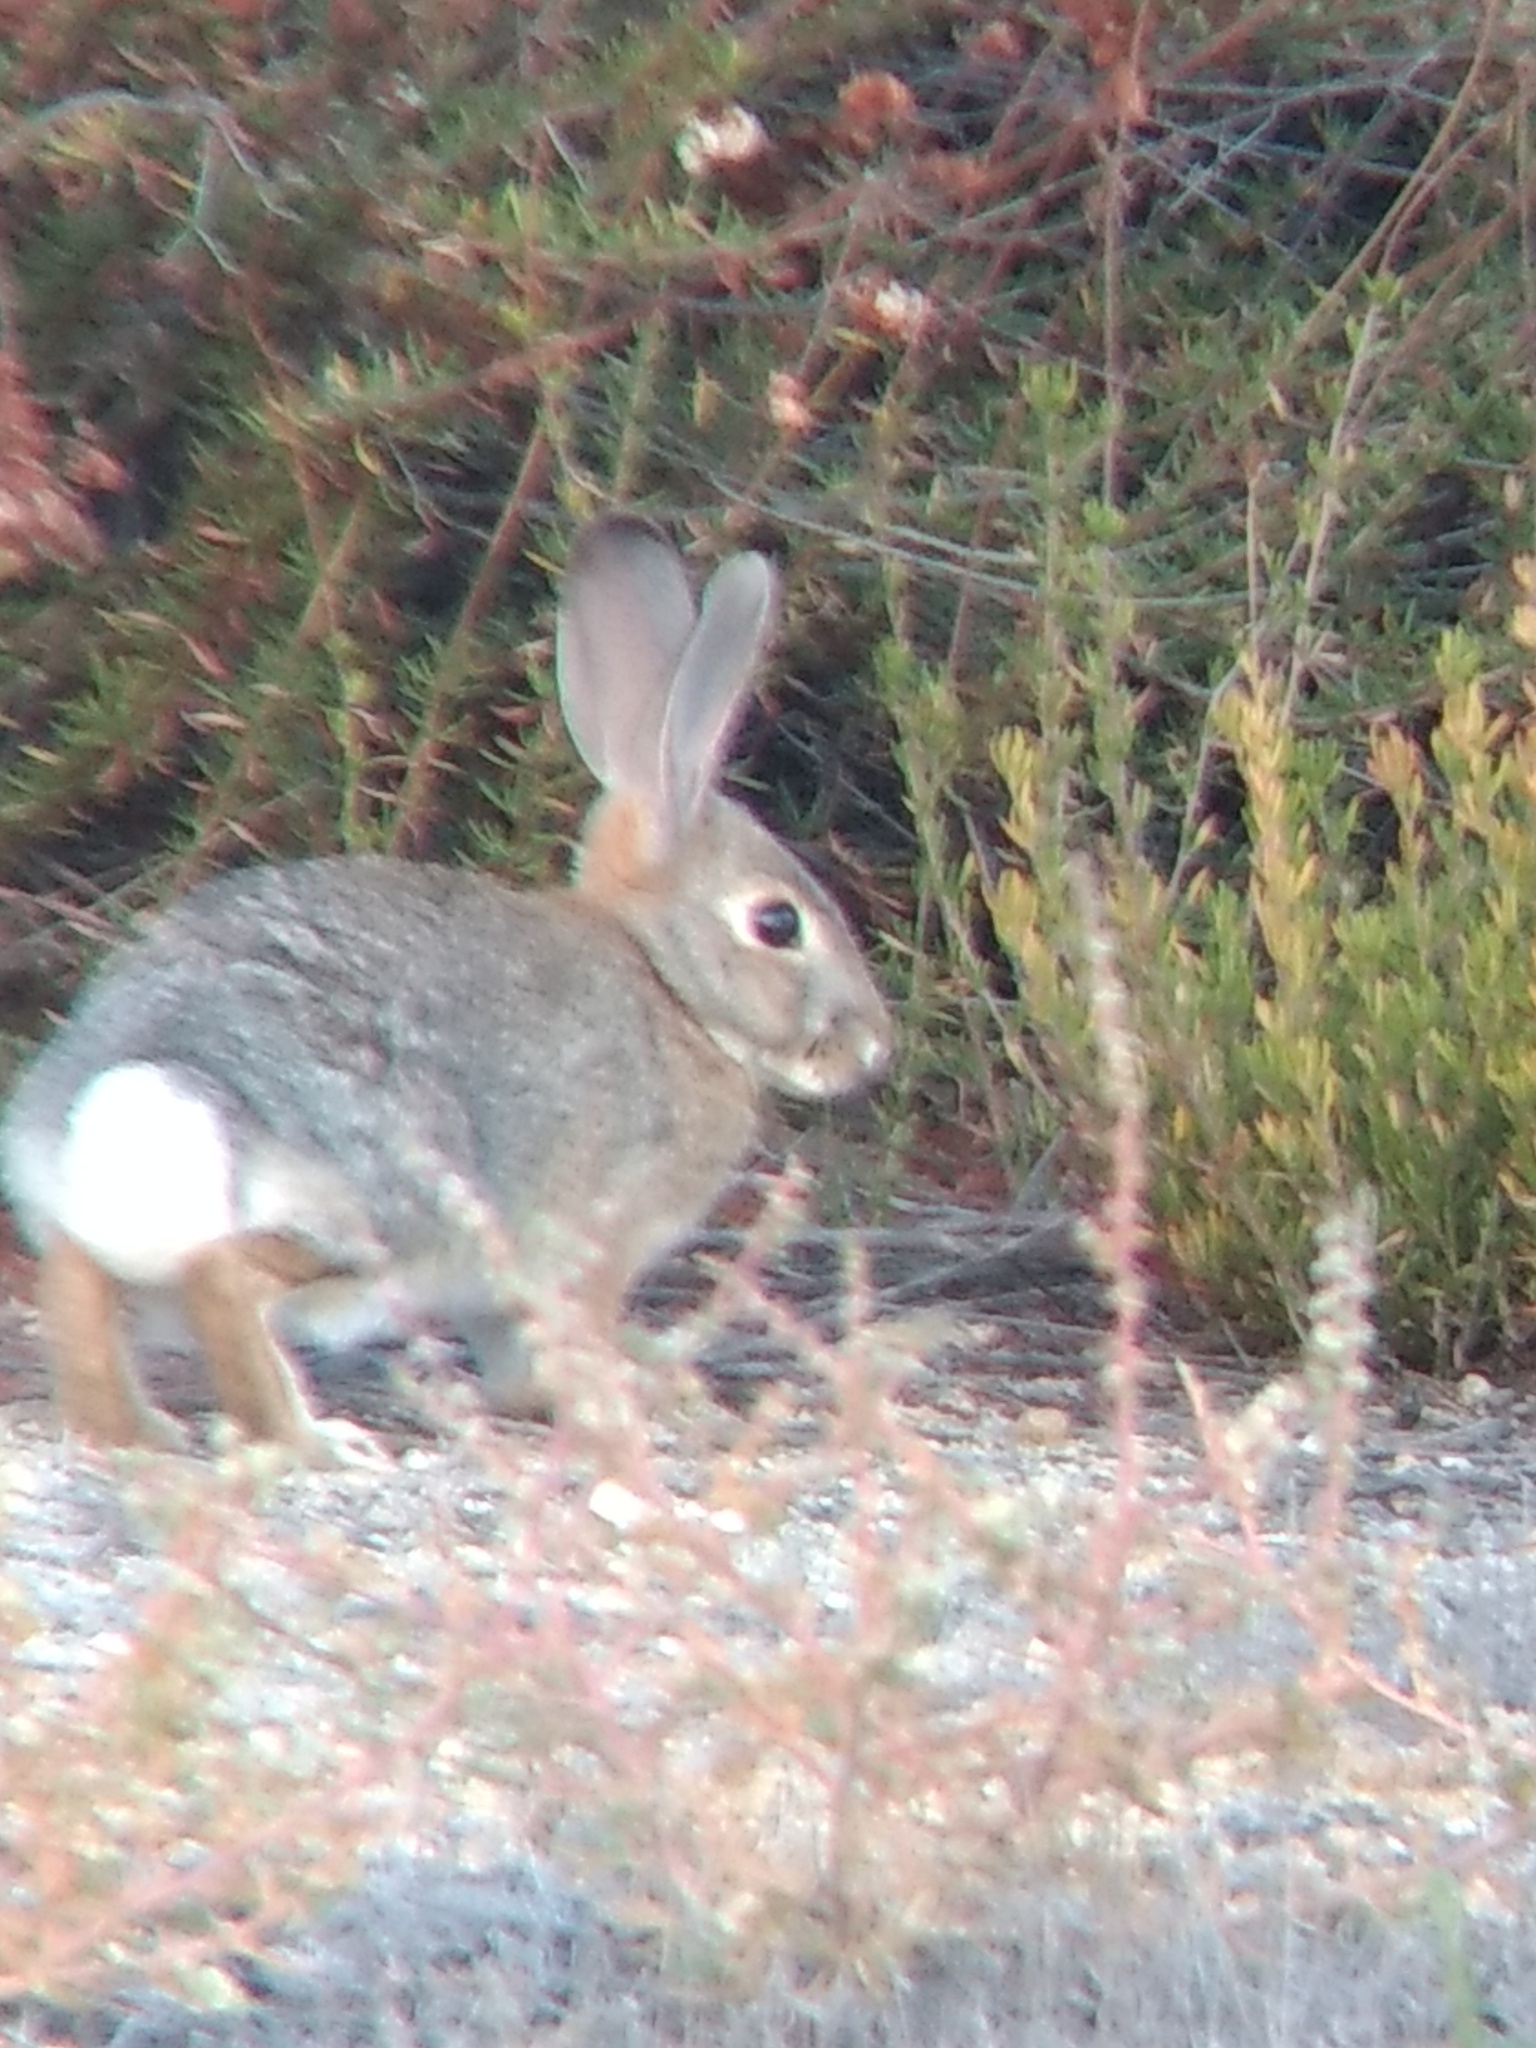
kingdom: Animalia
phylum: Chordata
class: Mammalia
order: Lagomorpha
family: Leporidae
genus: Sylvilagus
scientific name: Sylvilagus audubonii
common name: Desert cottontail
